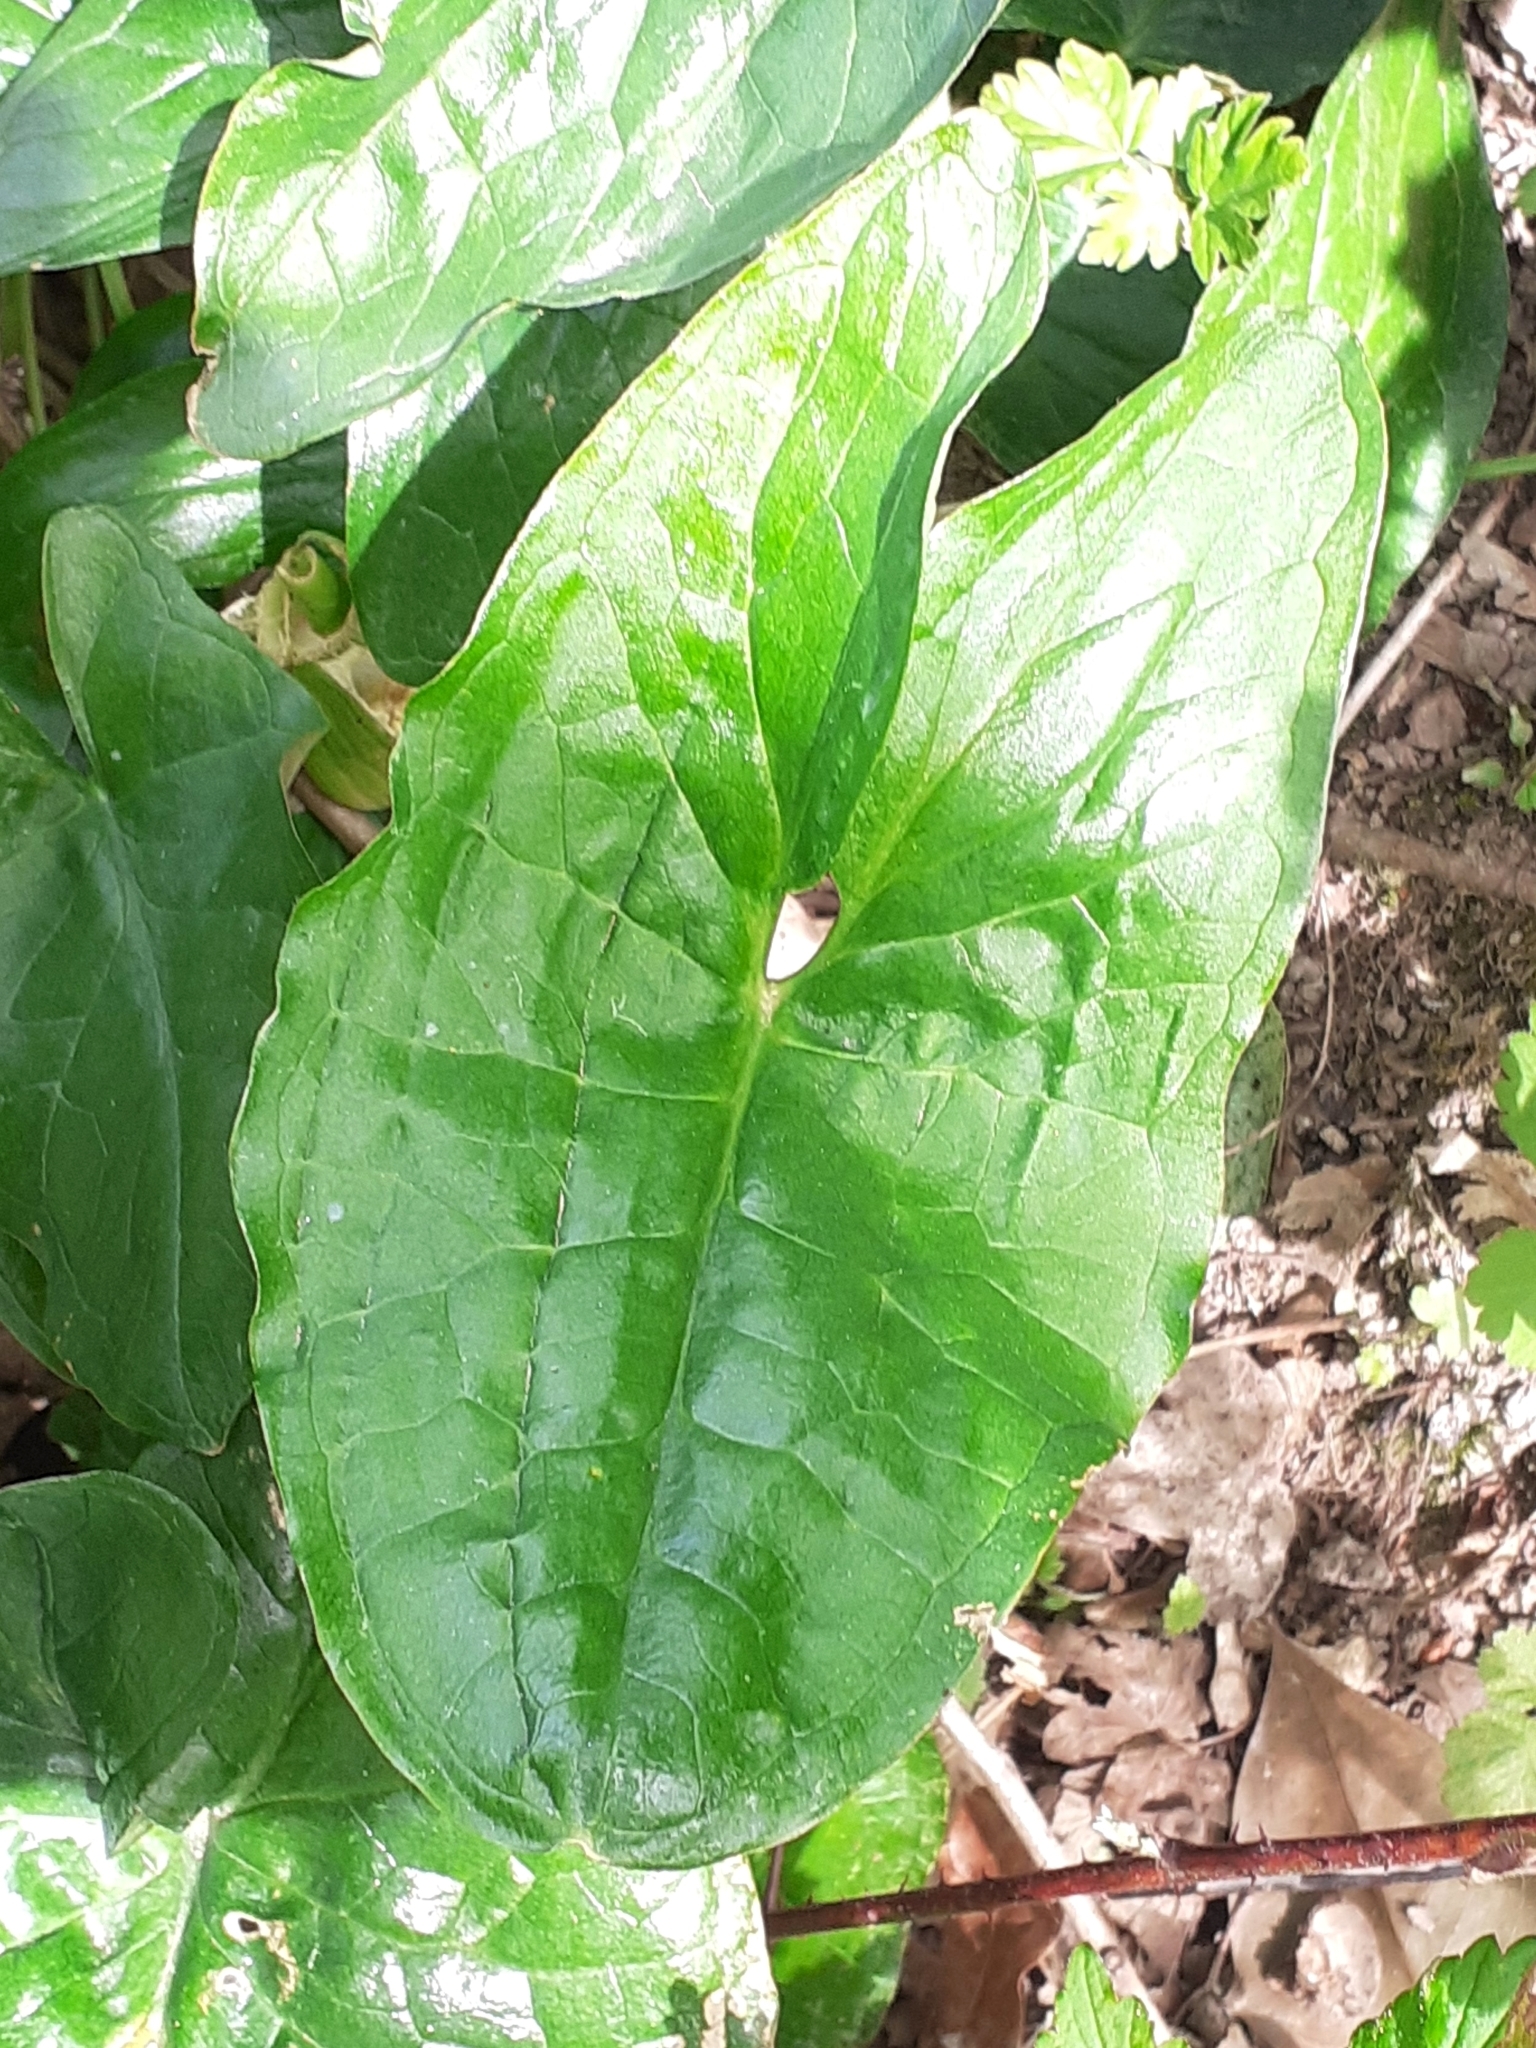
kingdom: Plantae
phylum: Tracheophyta
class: Liliopsida
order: Alismatales
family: Araceae
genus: Arum
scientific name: Arum maculatum
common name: Lords-and-ladies
